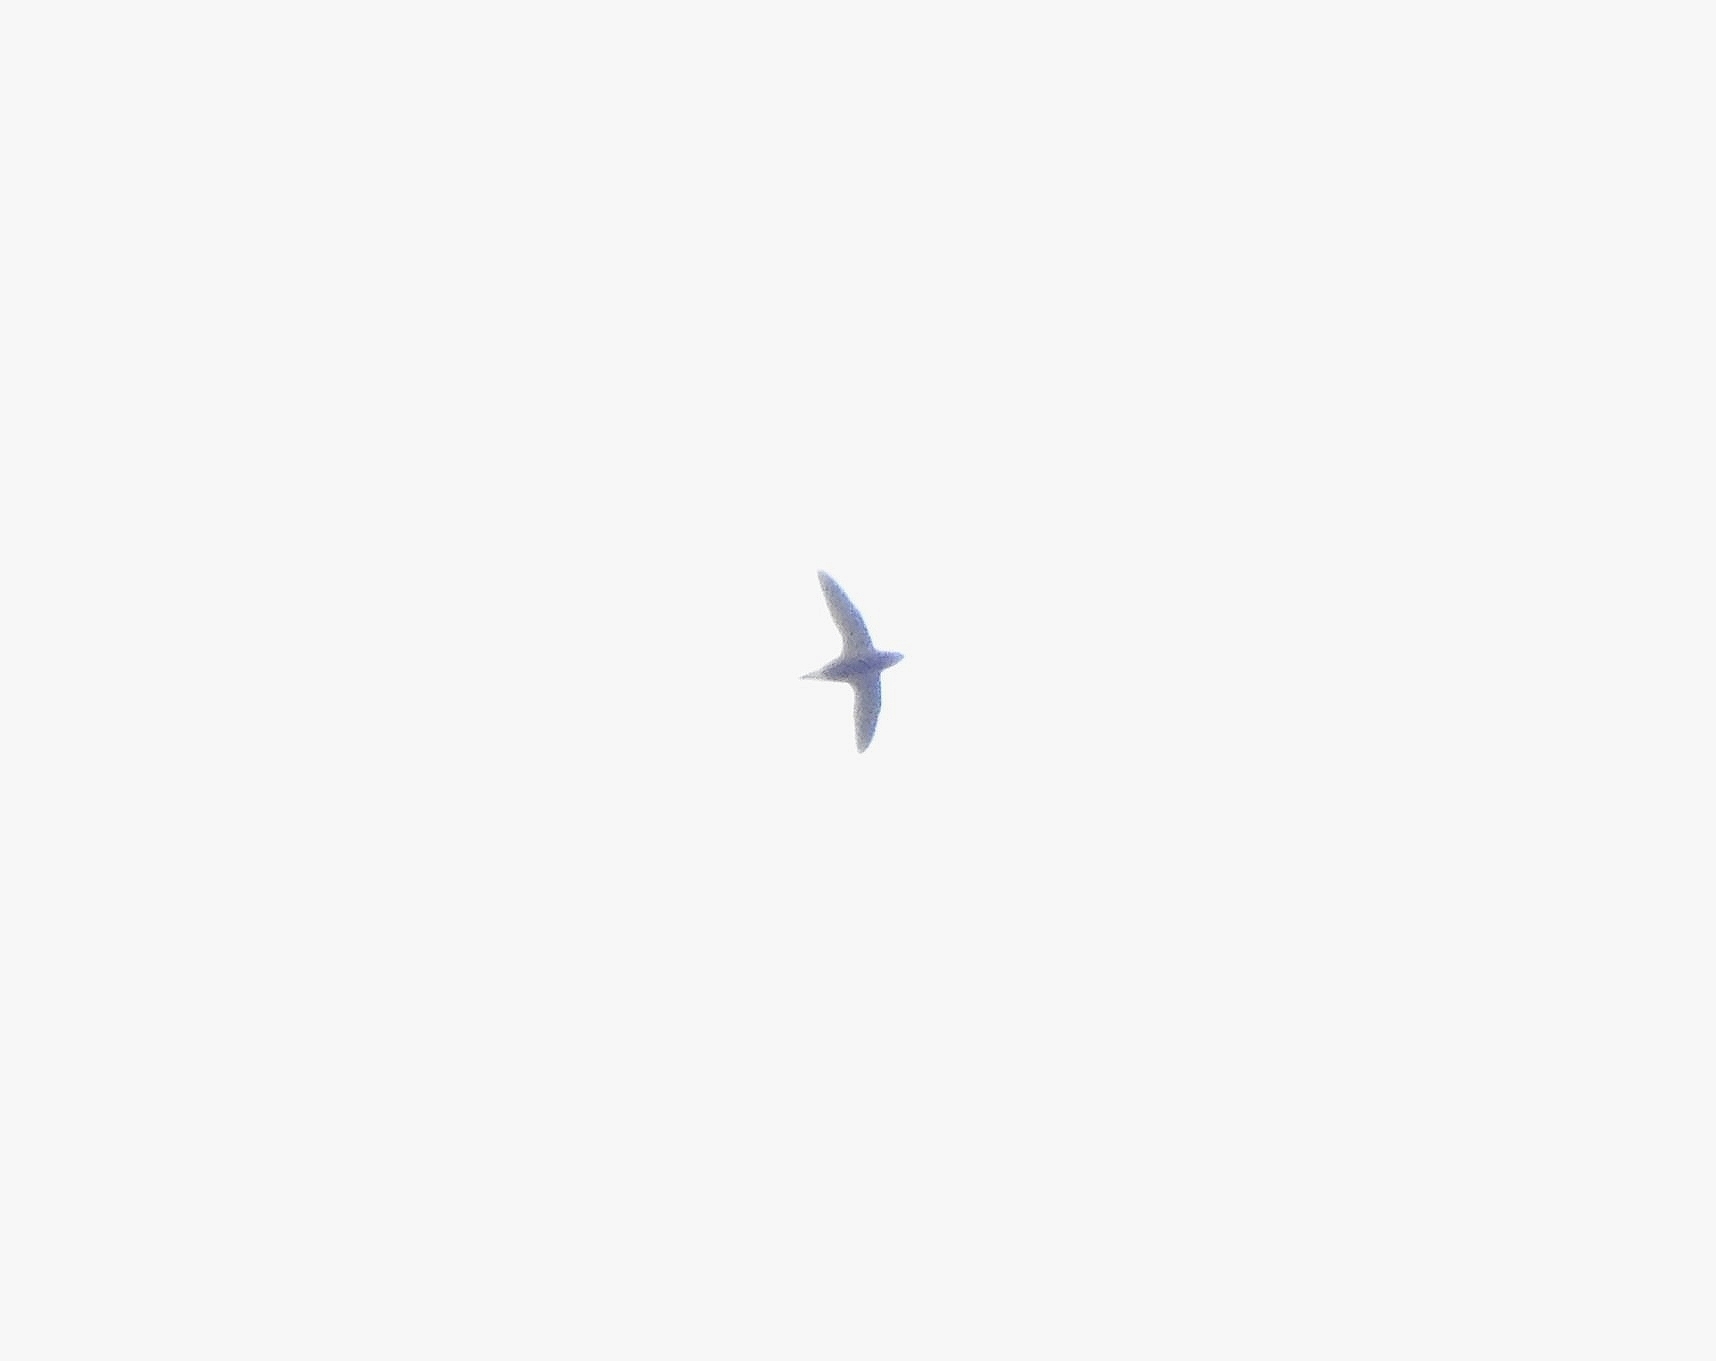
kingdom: Animalia
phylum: Chordata
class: Aves
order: Apodiformes
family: Apodidae
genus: Hirundapus
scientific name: Hirundapus giganteus
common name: Brown-backed needletail
